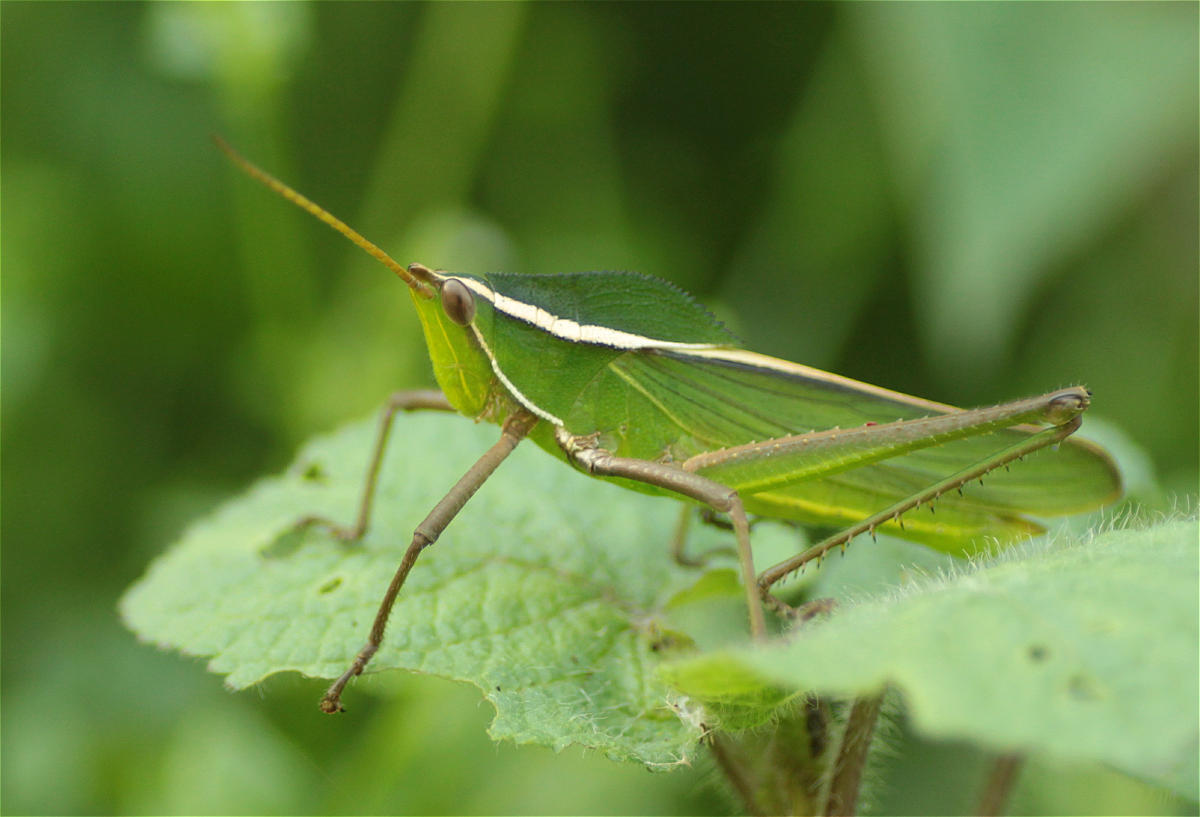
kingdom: Animalia
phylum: Arthropoda
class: Insecta
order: Orthoptera
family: Romaleidae
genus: Prionolopha
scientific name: Prionolopha serrata
